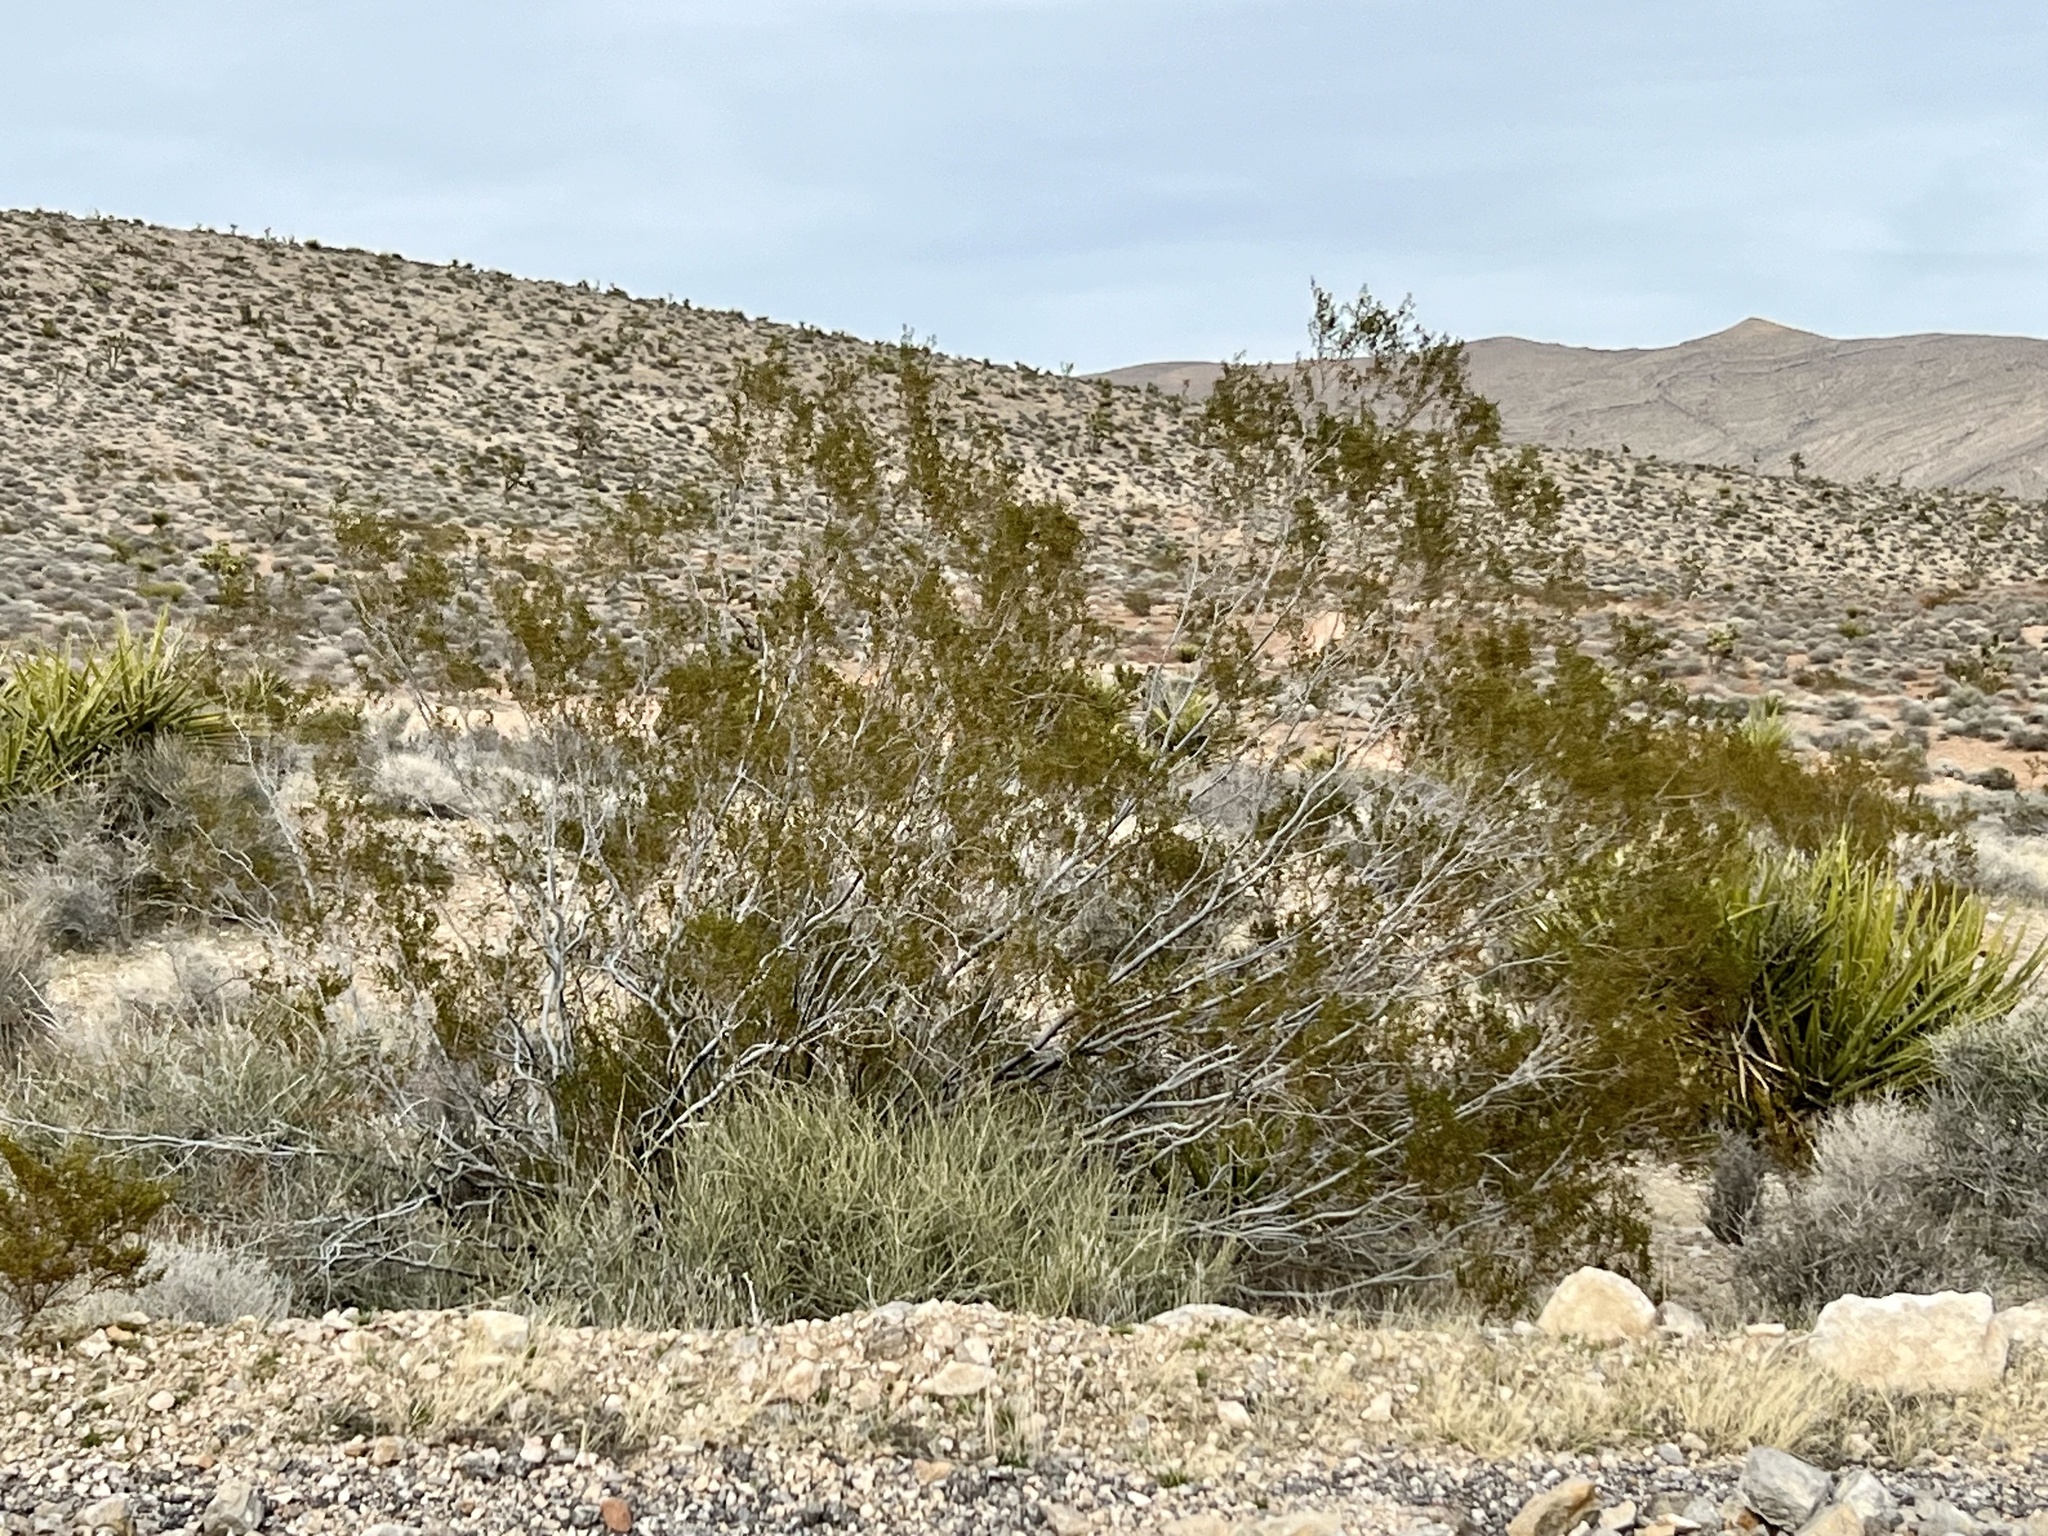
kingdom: Plantae
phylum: Tracheophyta
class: Magnoliopsida
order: Zygophyllales
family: Zygophyllaceae
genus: Larrea
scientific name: Larrea tridentata
